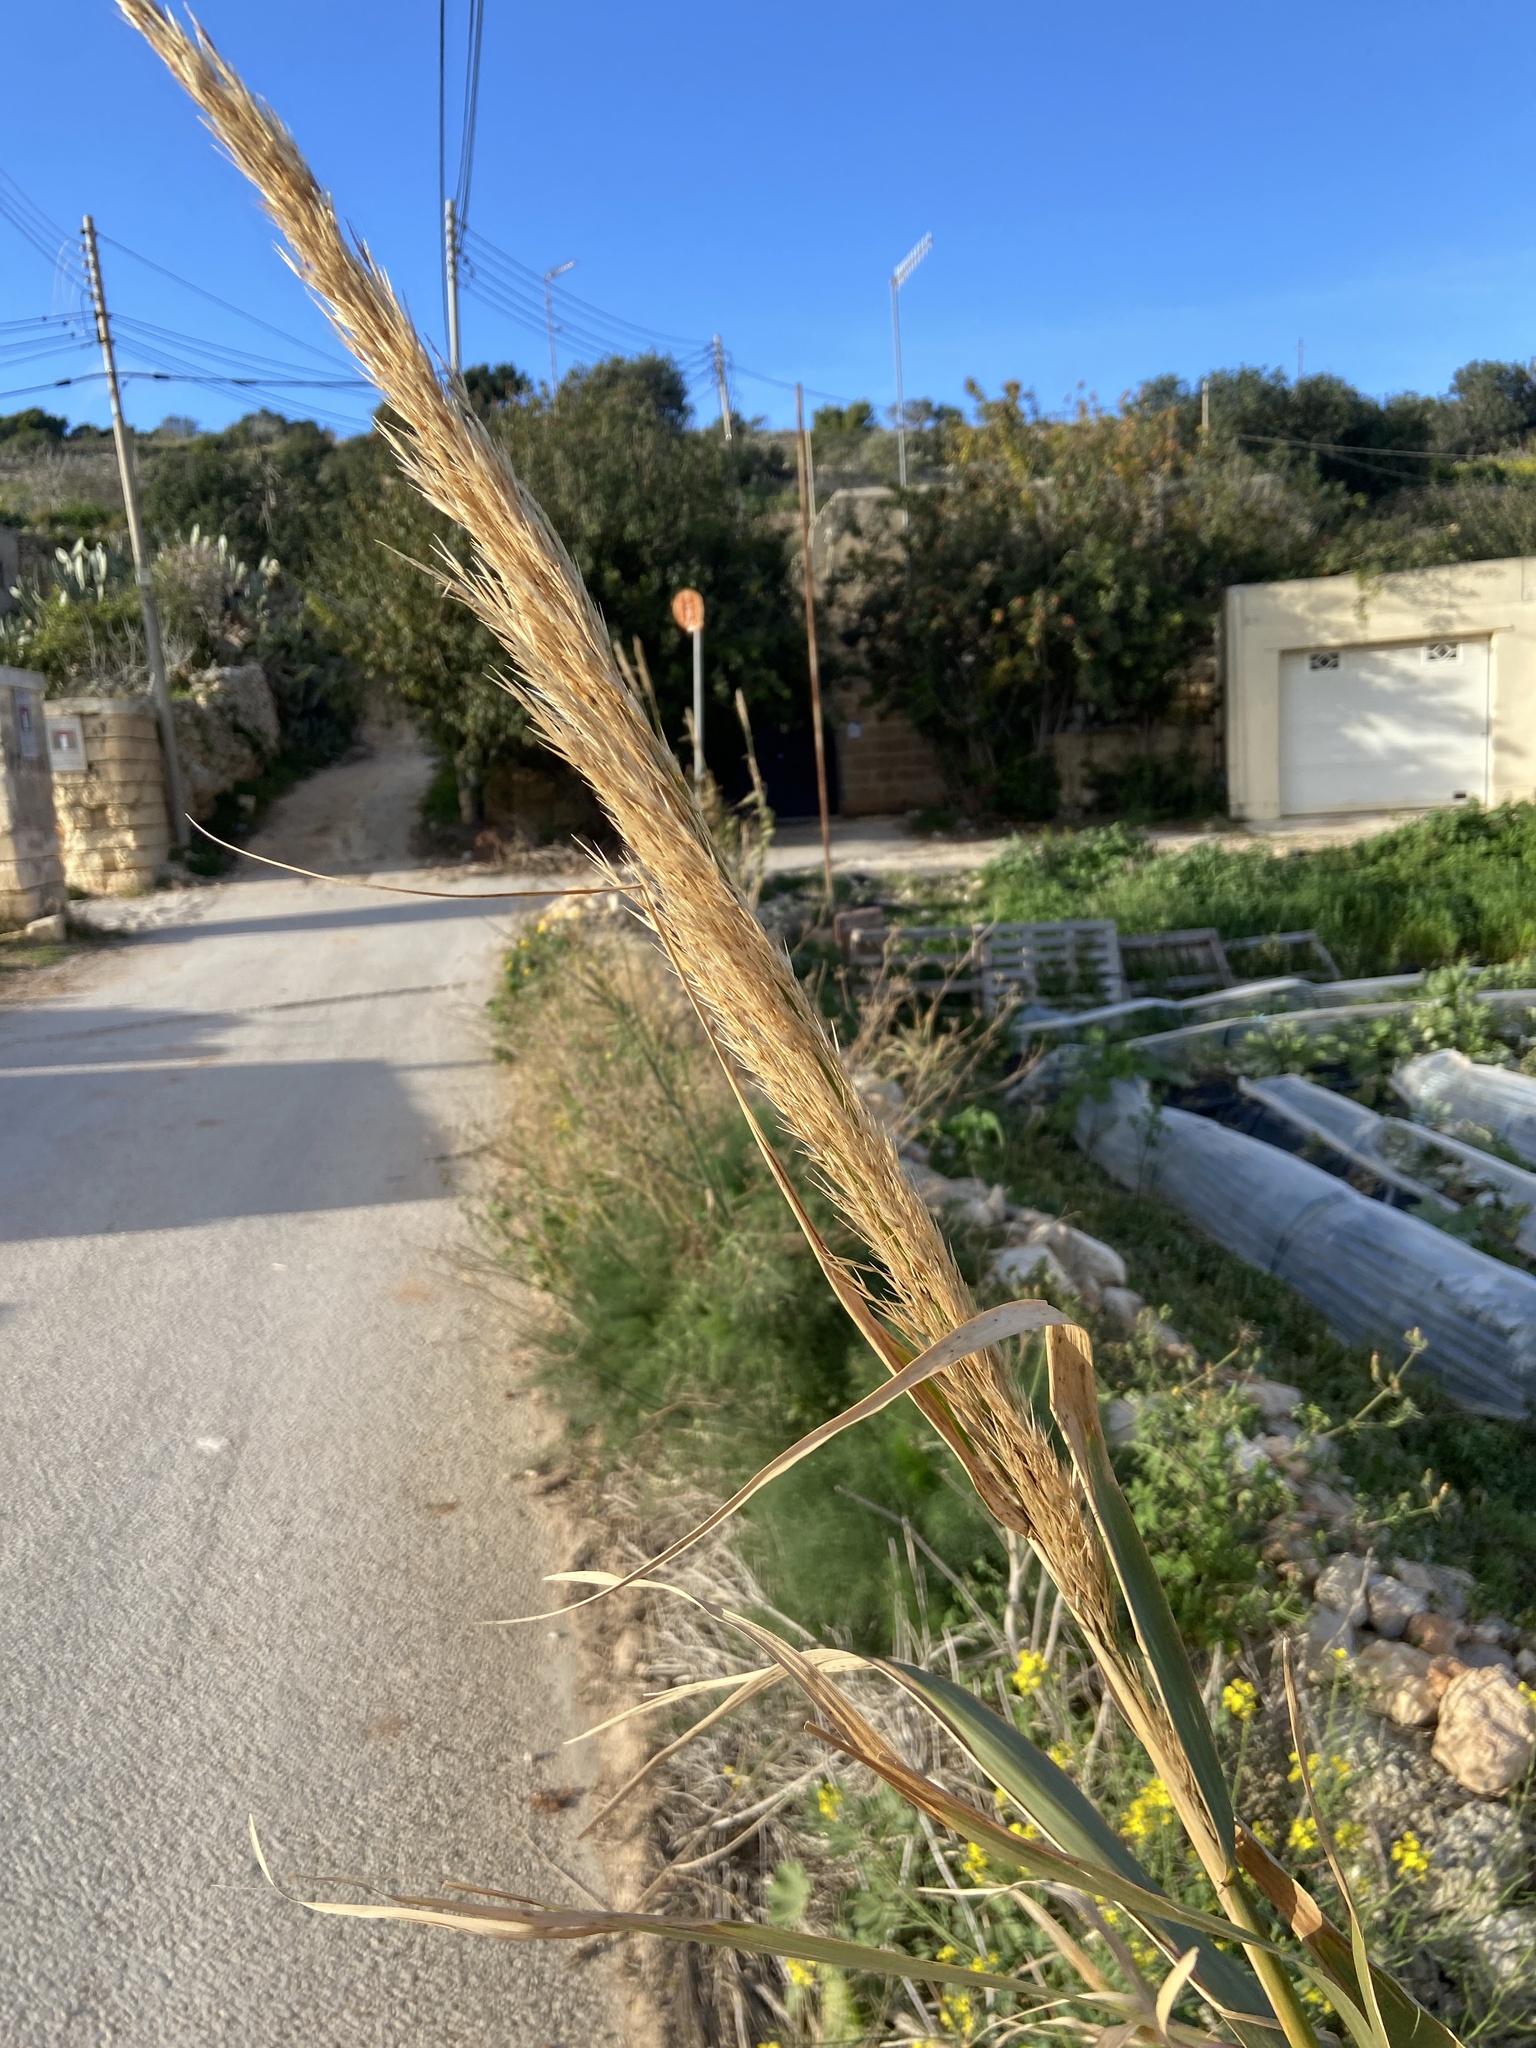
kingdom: Plantae
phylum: Tracheophyta
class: Liliopsida
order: Poales
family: Poaceae
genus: Arundo
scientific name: Arundo donax
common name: Giant reed
